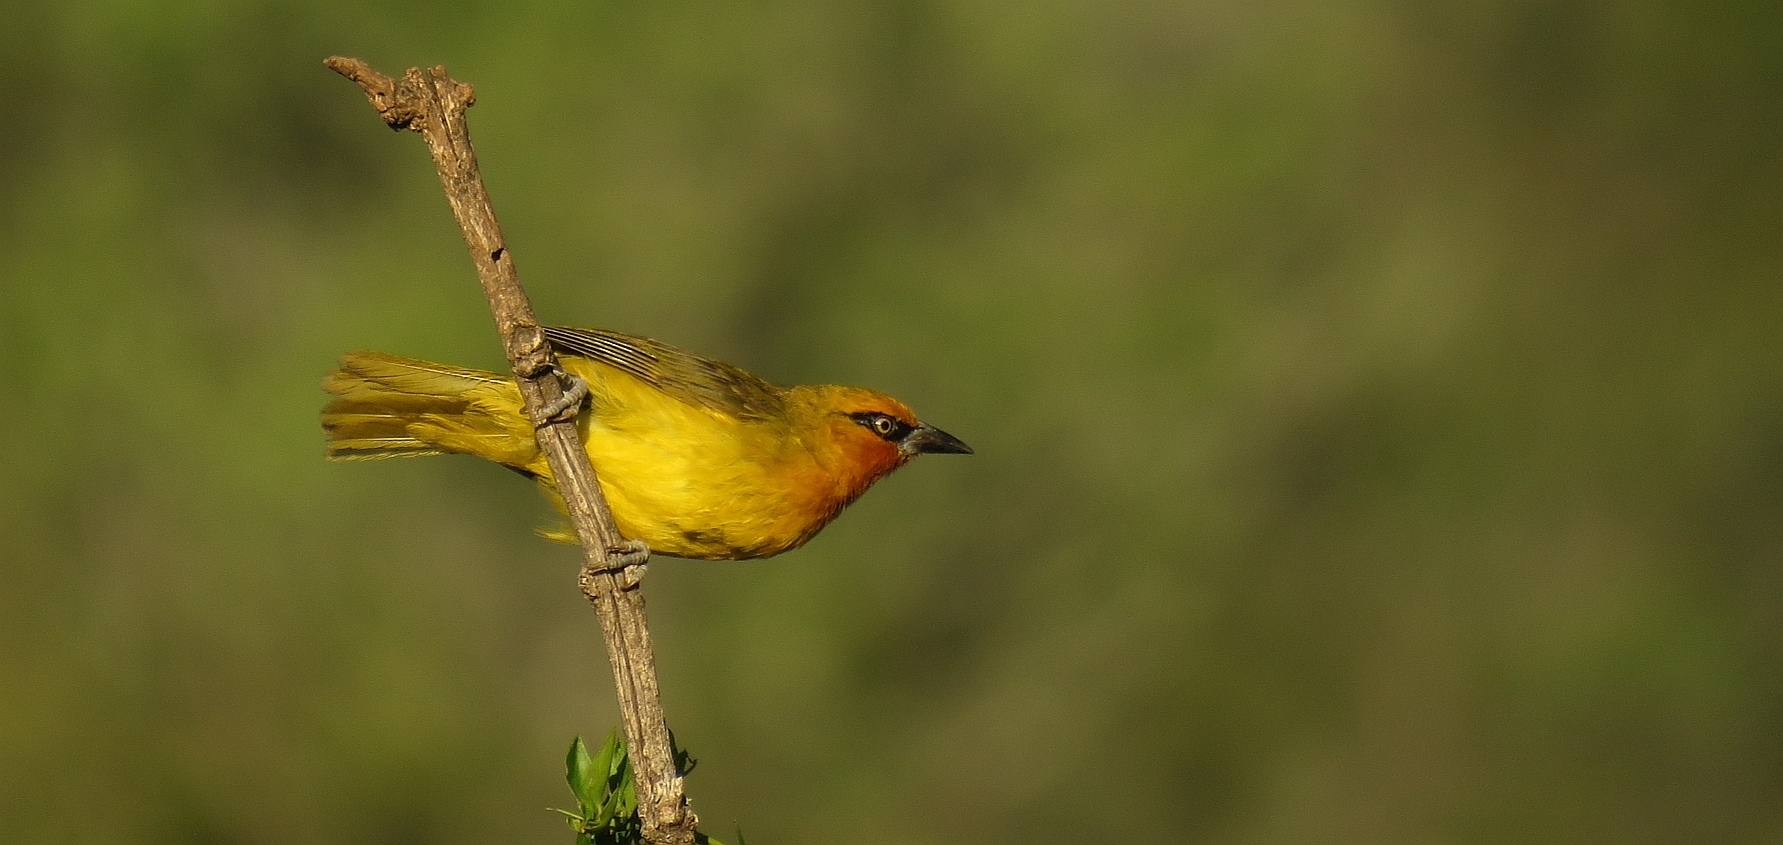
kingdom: Animalia
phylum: Chordata
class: Aves
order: Passeriformes
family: Ploceidae
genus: Ploceus
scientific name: Ploceus ocularis
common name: Spectacled weaver
